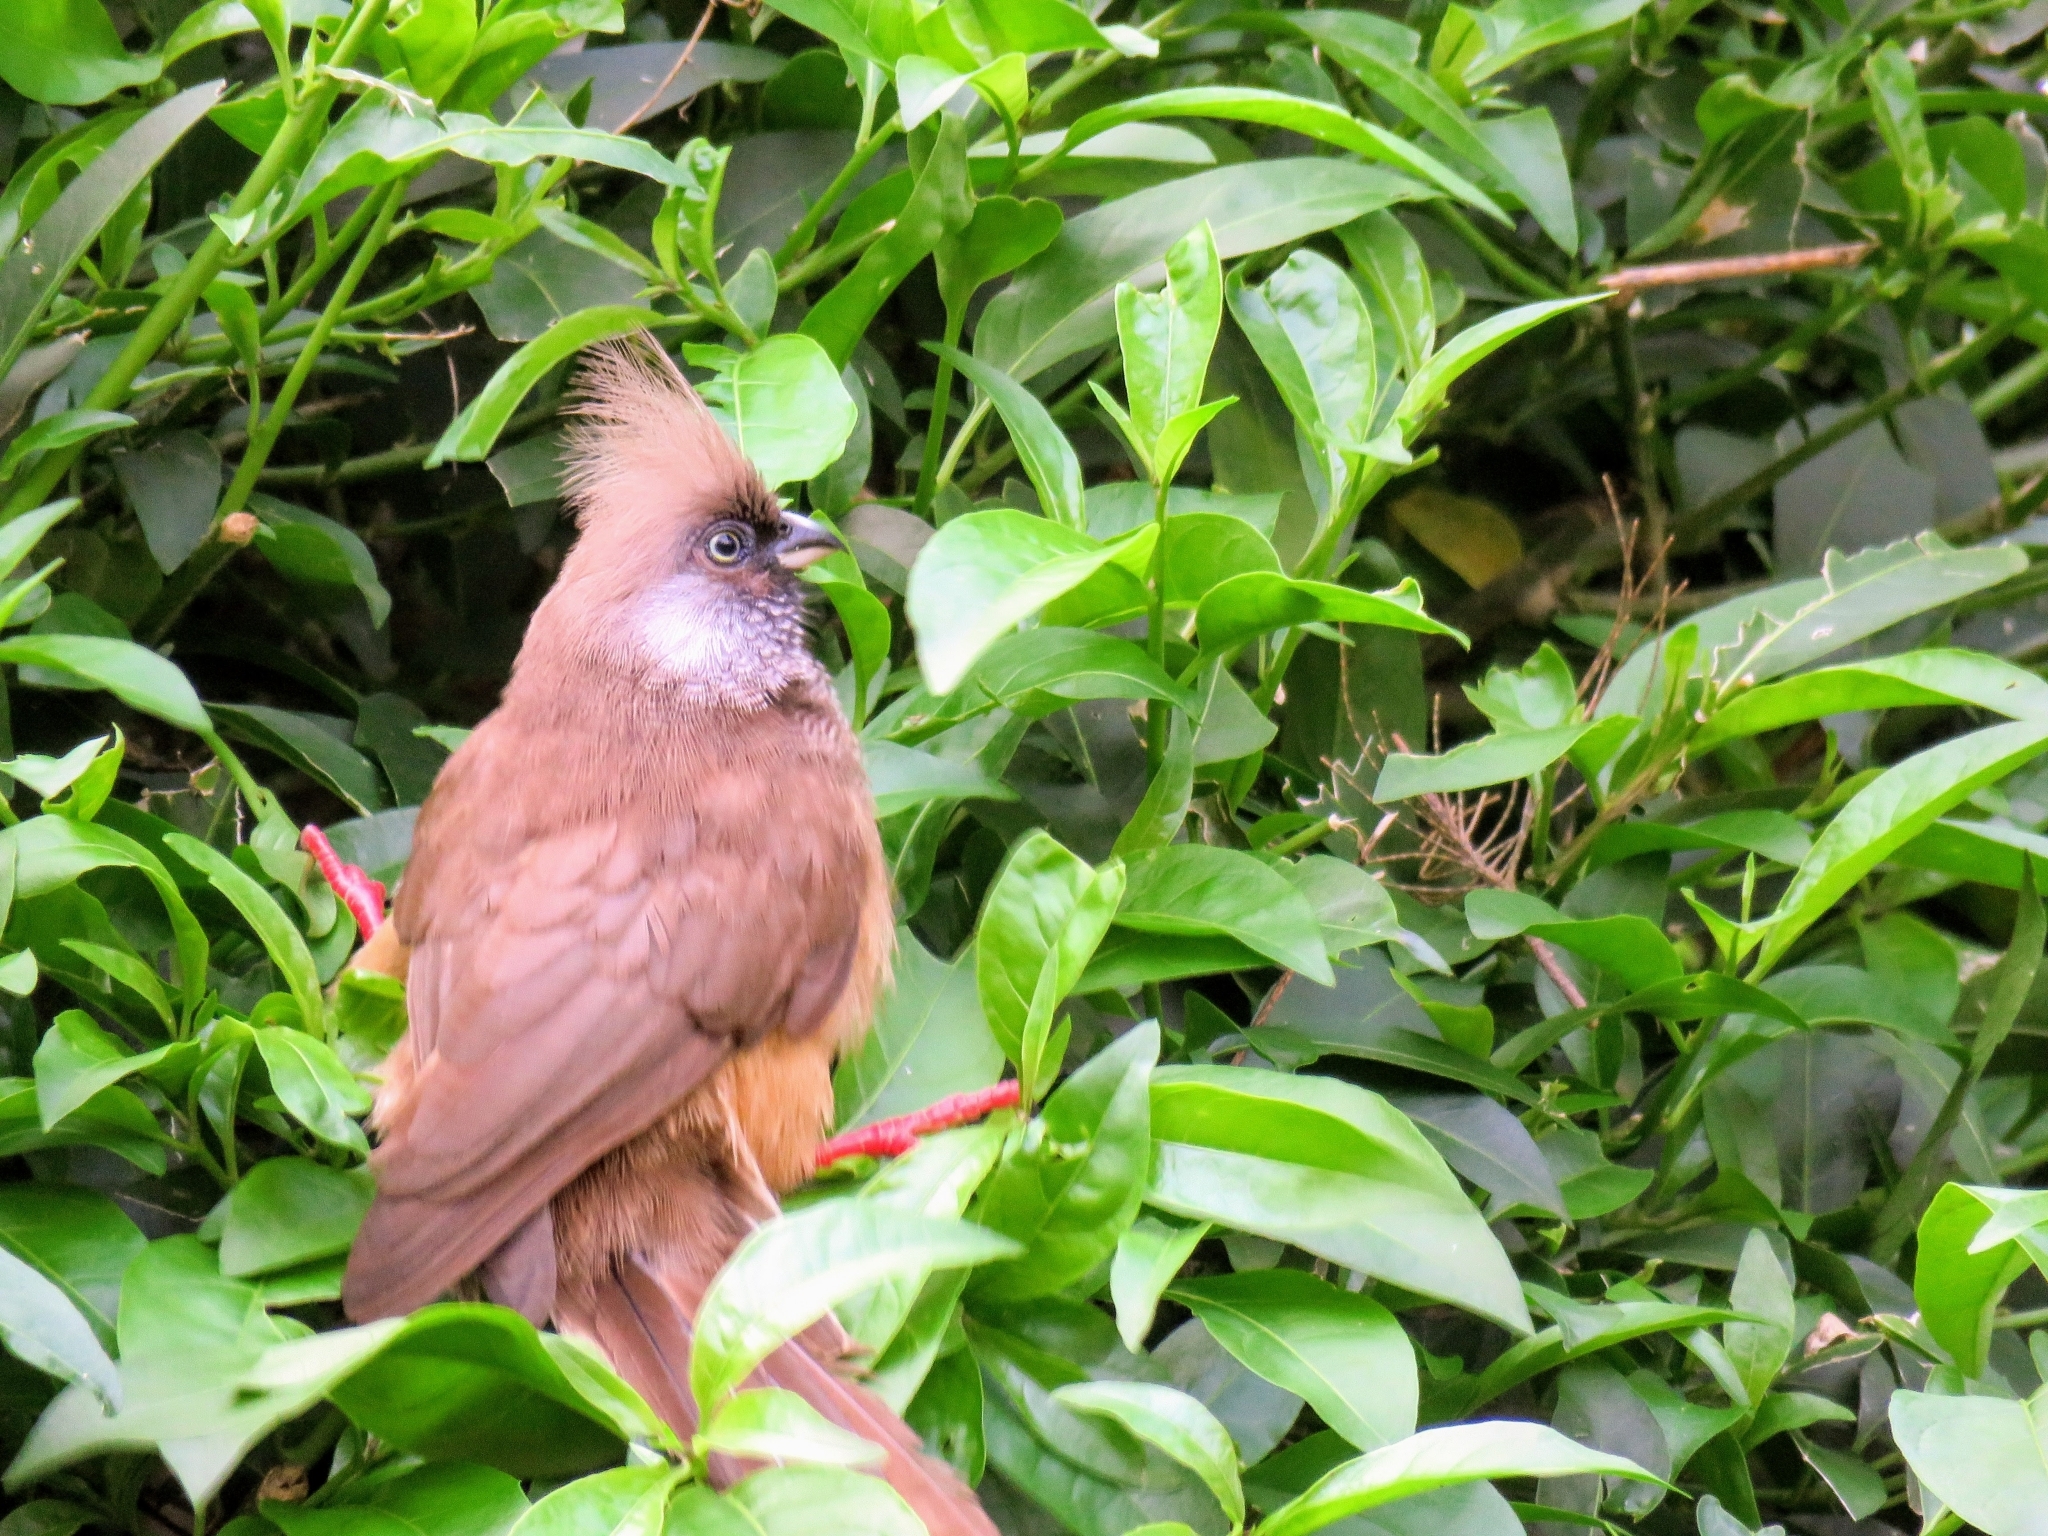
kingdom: Animalia
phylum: Chordata
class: Aves
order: Coliiformes
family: Coliidae
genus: Colius
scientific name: Colius striatus
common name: Speckled mousebird
